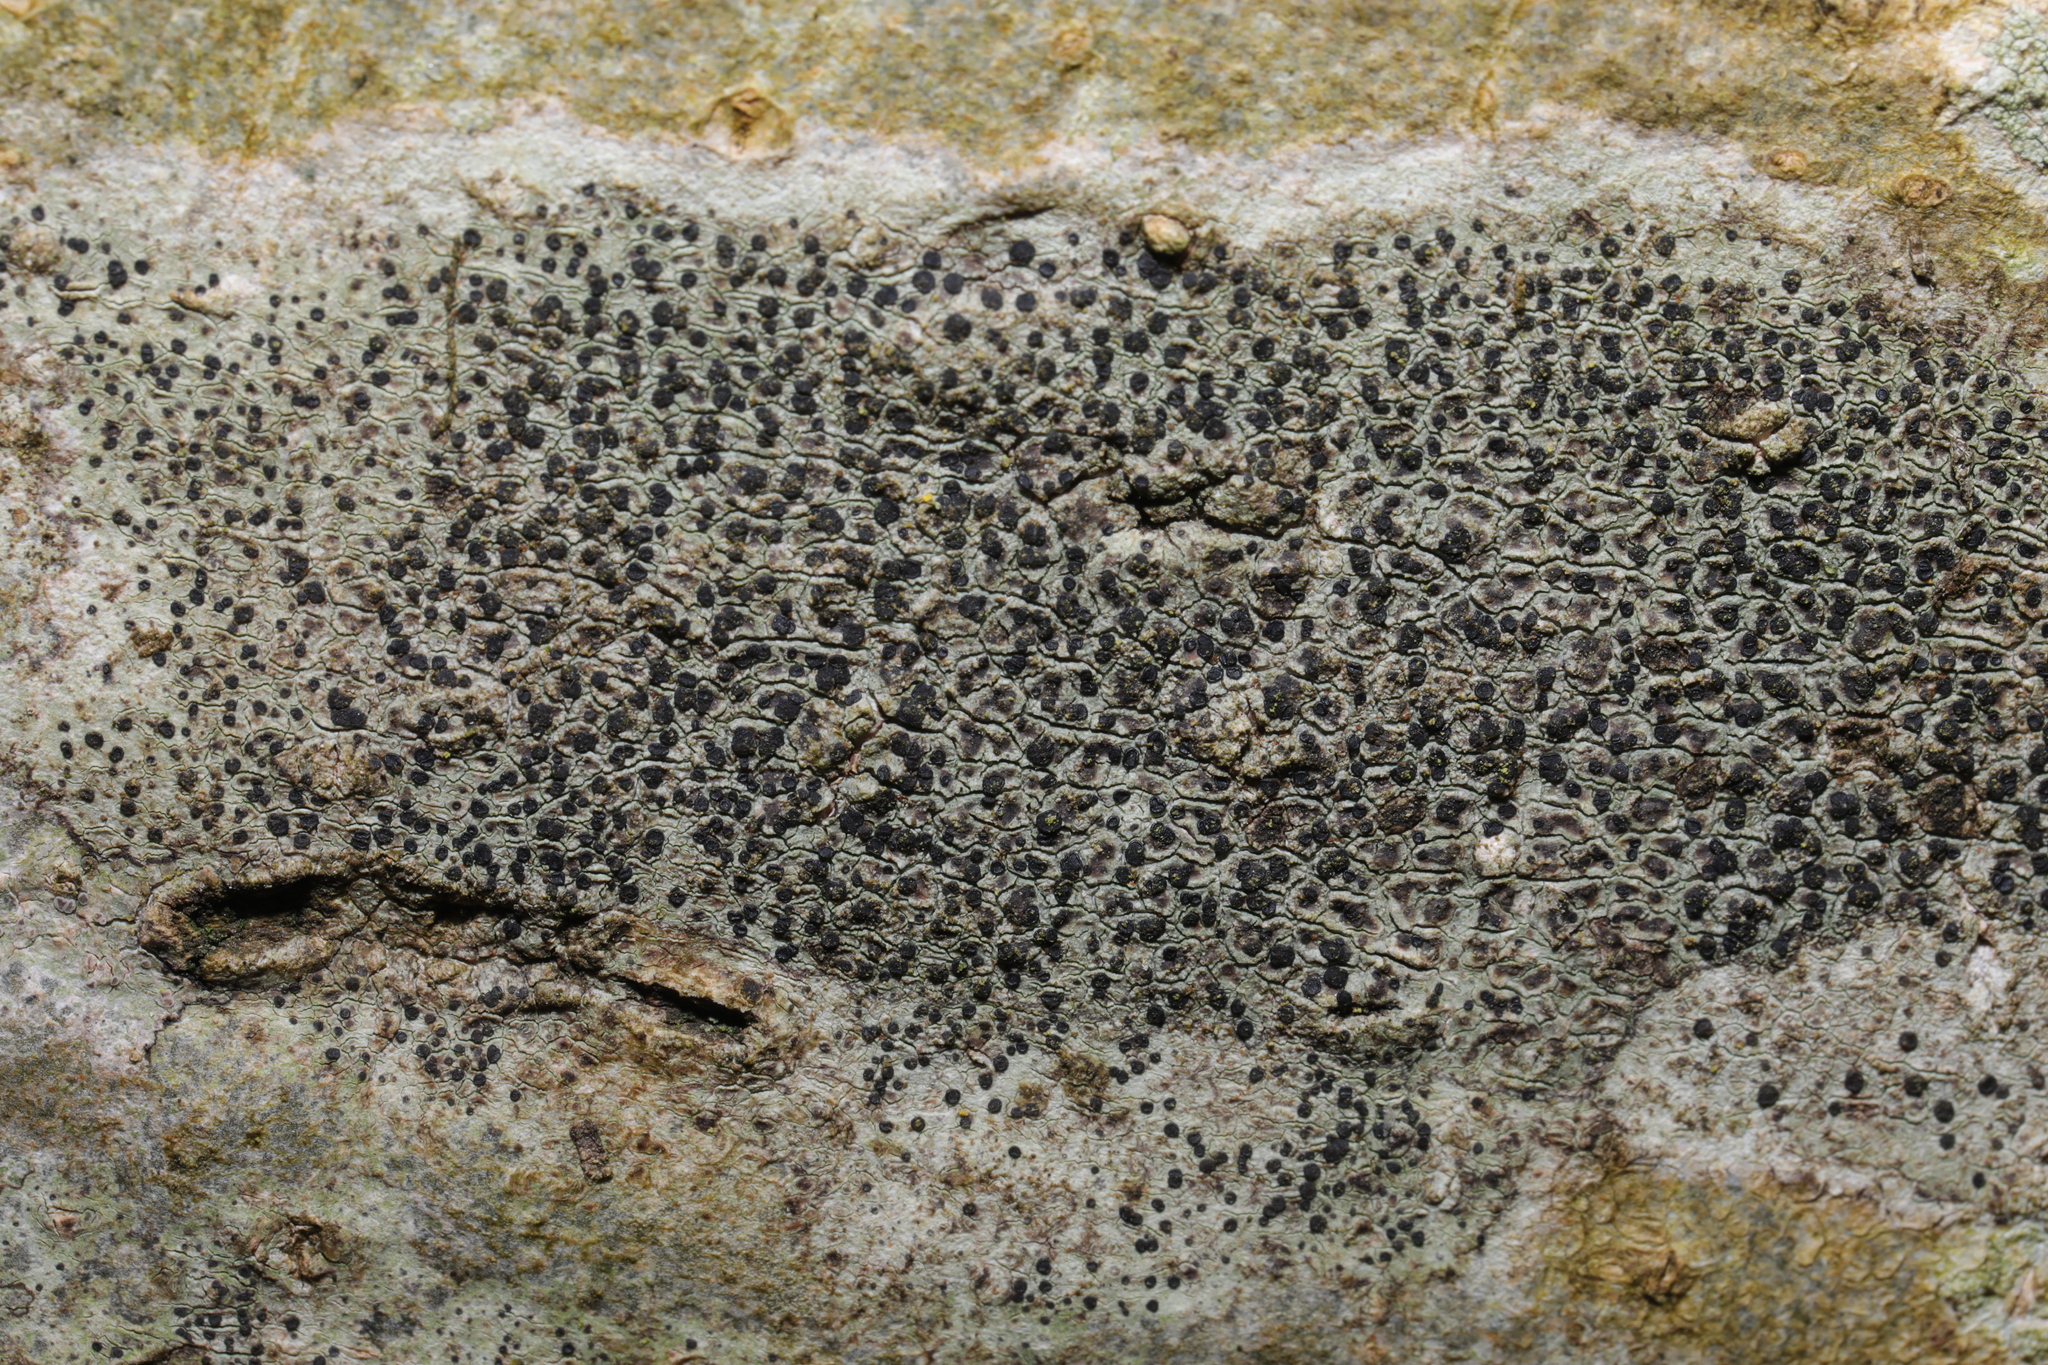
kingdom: Fungi
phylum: Ascomycota
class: Lecanoromycetes
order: Lecanorales
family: Lecanoraceae
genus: Lecidella
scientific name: Lecidella elaeochroma
